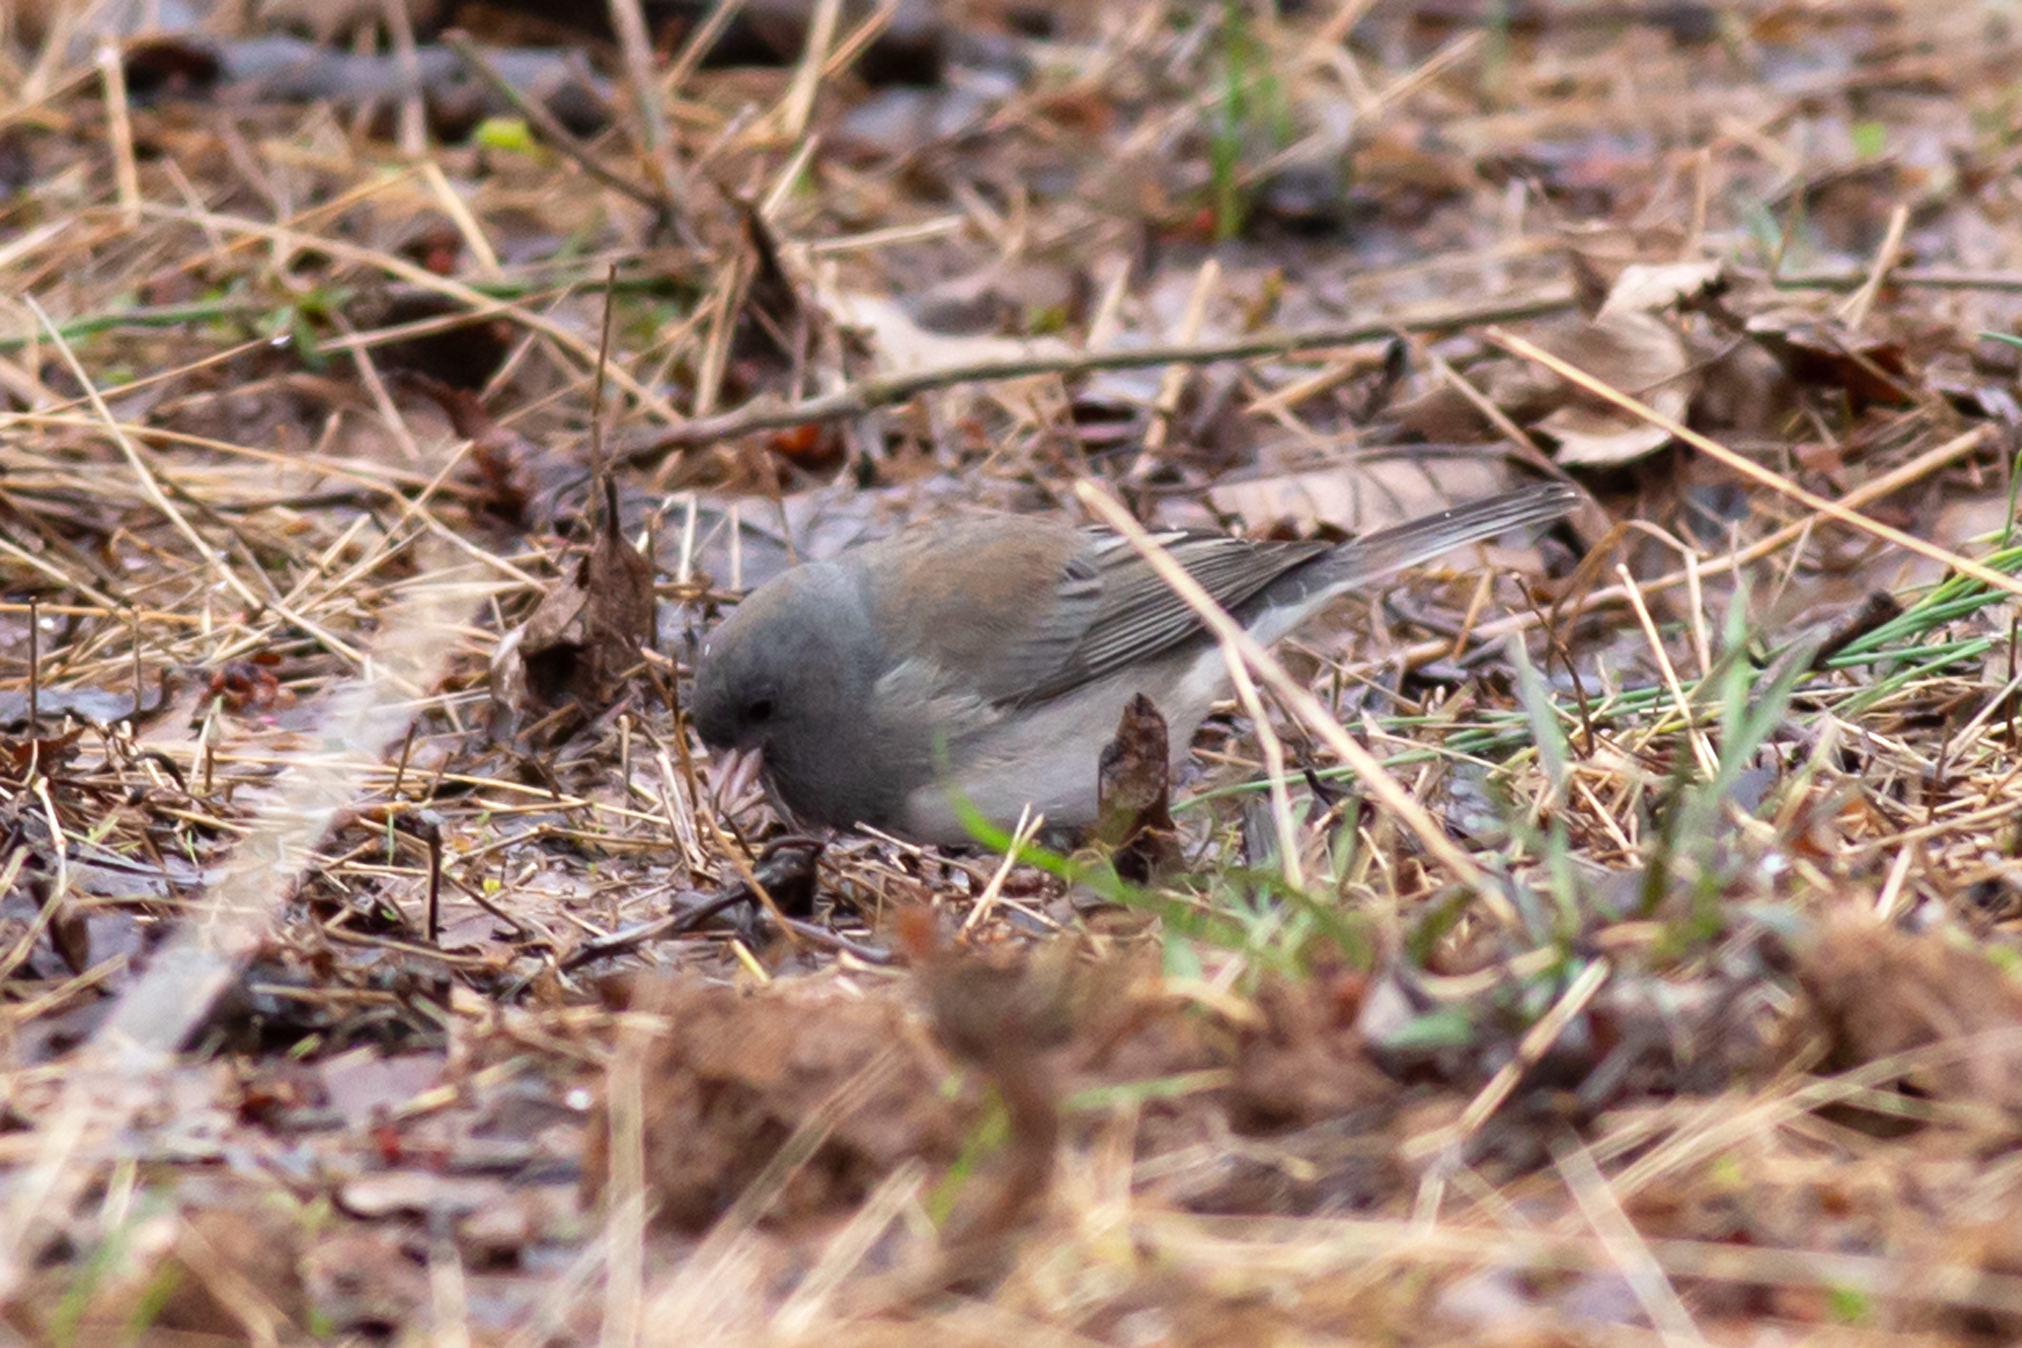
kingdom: Animalia
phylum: Chordata
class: Aves
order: Passeriformes
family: Passerellidae
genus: Junco
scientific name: Junco hyemalis
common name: Dark-eyed junco
